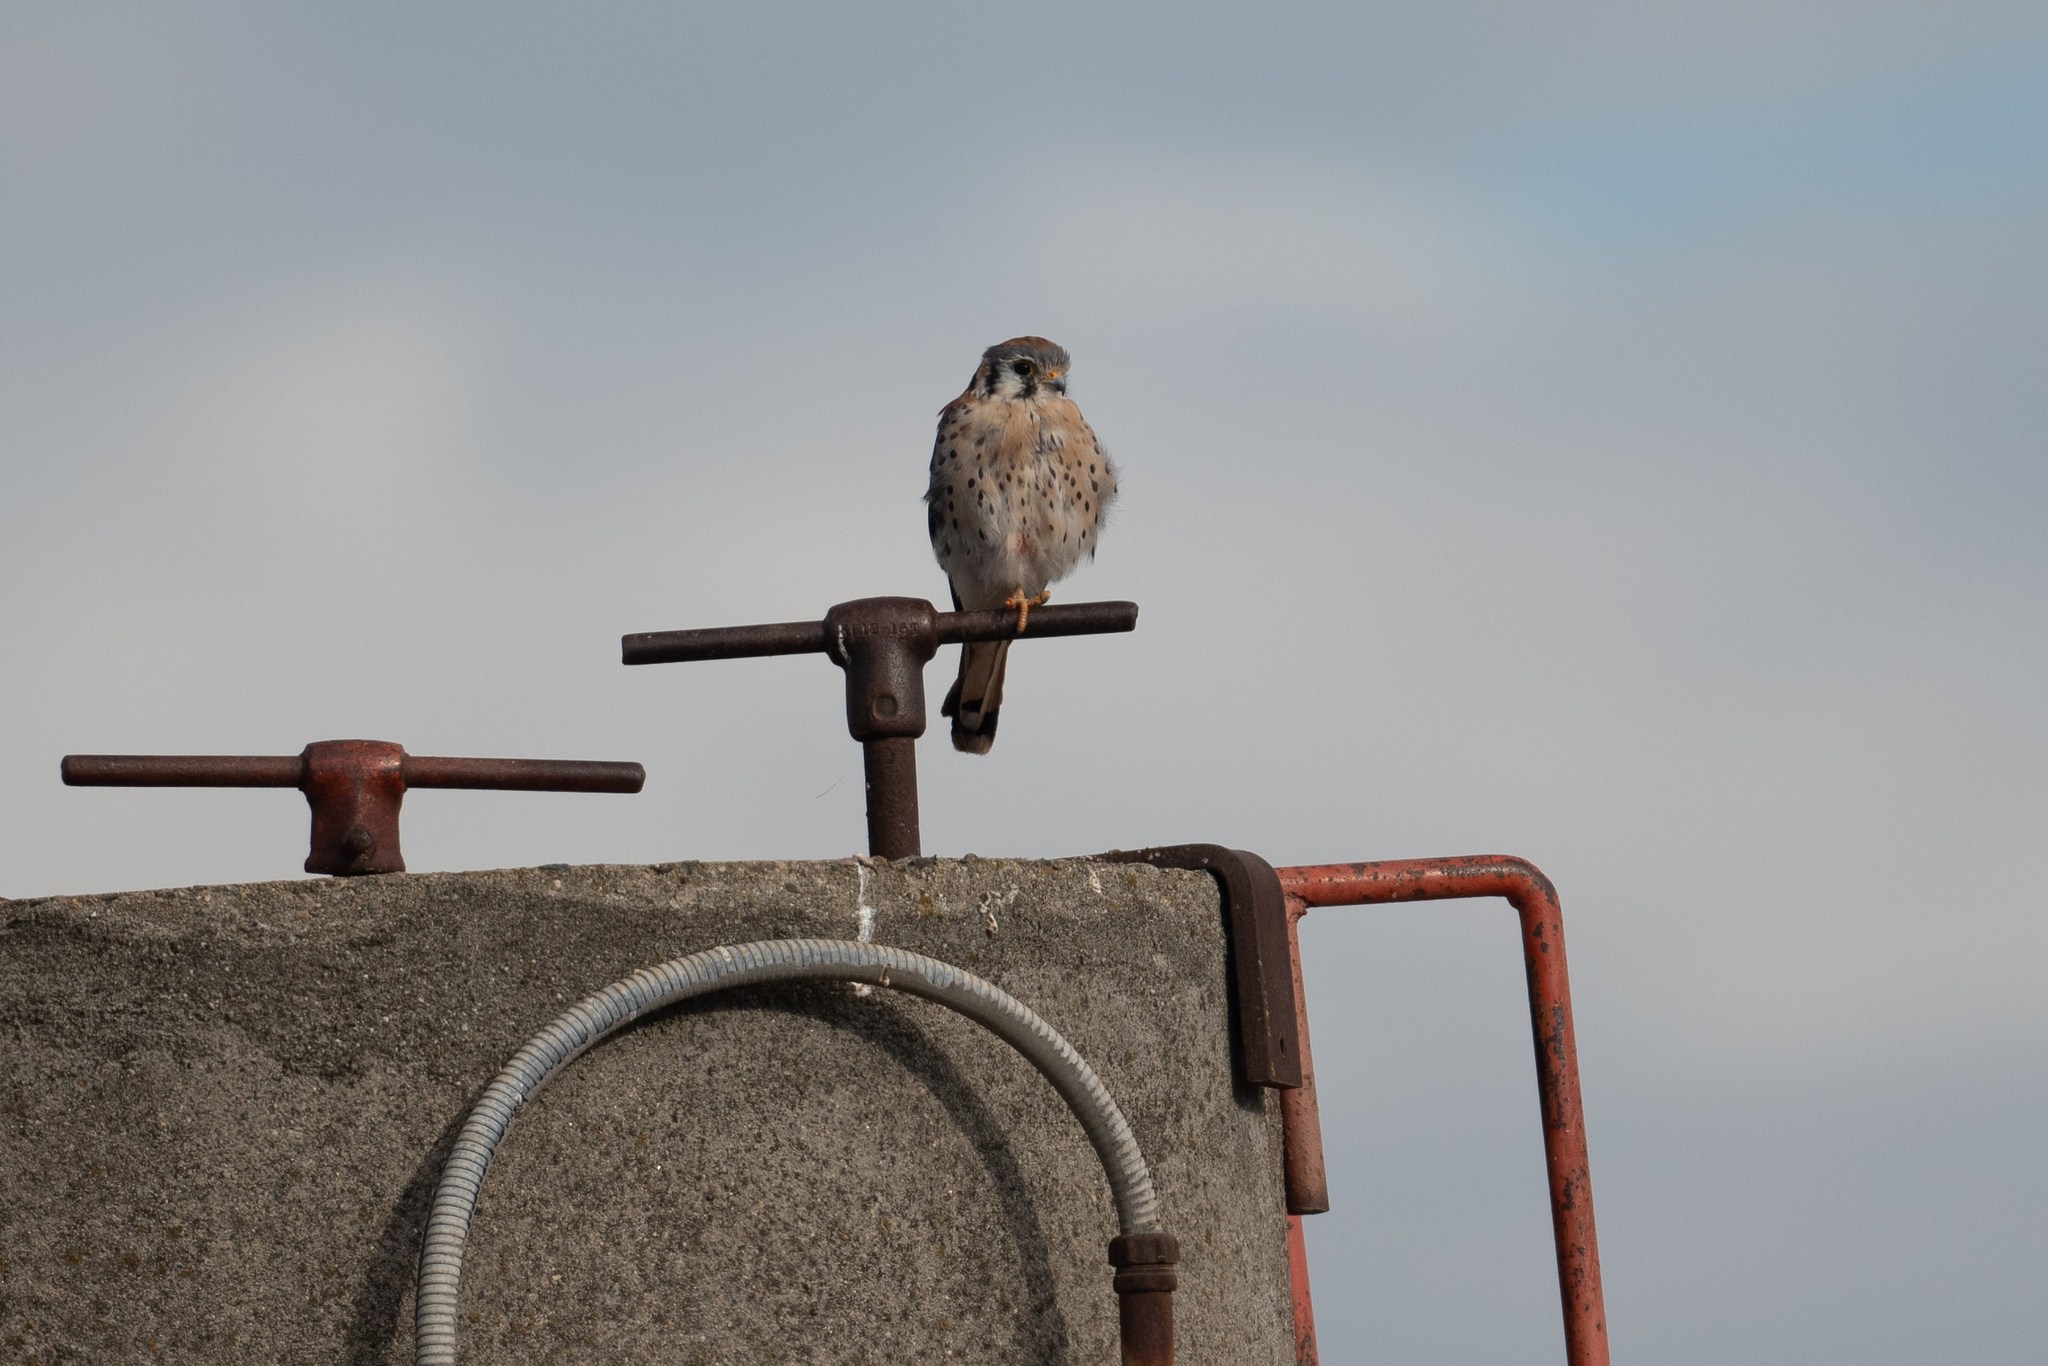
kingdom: Animalia
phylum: Chordata
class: Aves
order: Falconiformes
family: Falconidae
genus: Falco
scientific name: Falco sparverius
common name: American kestrel
